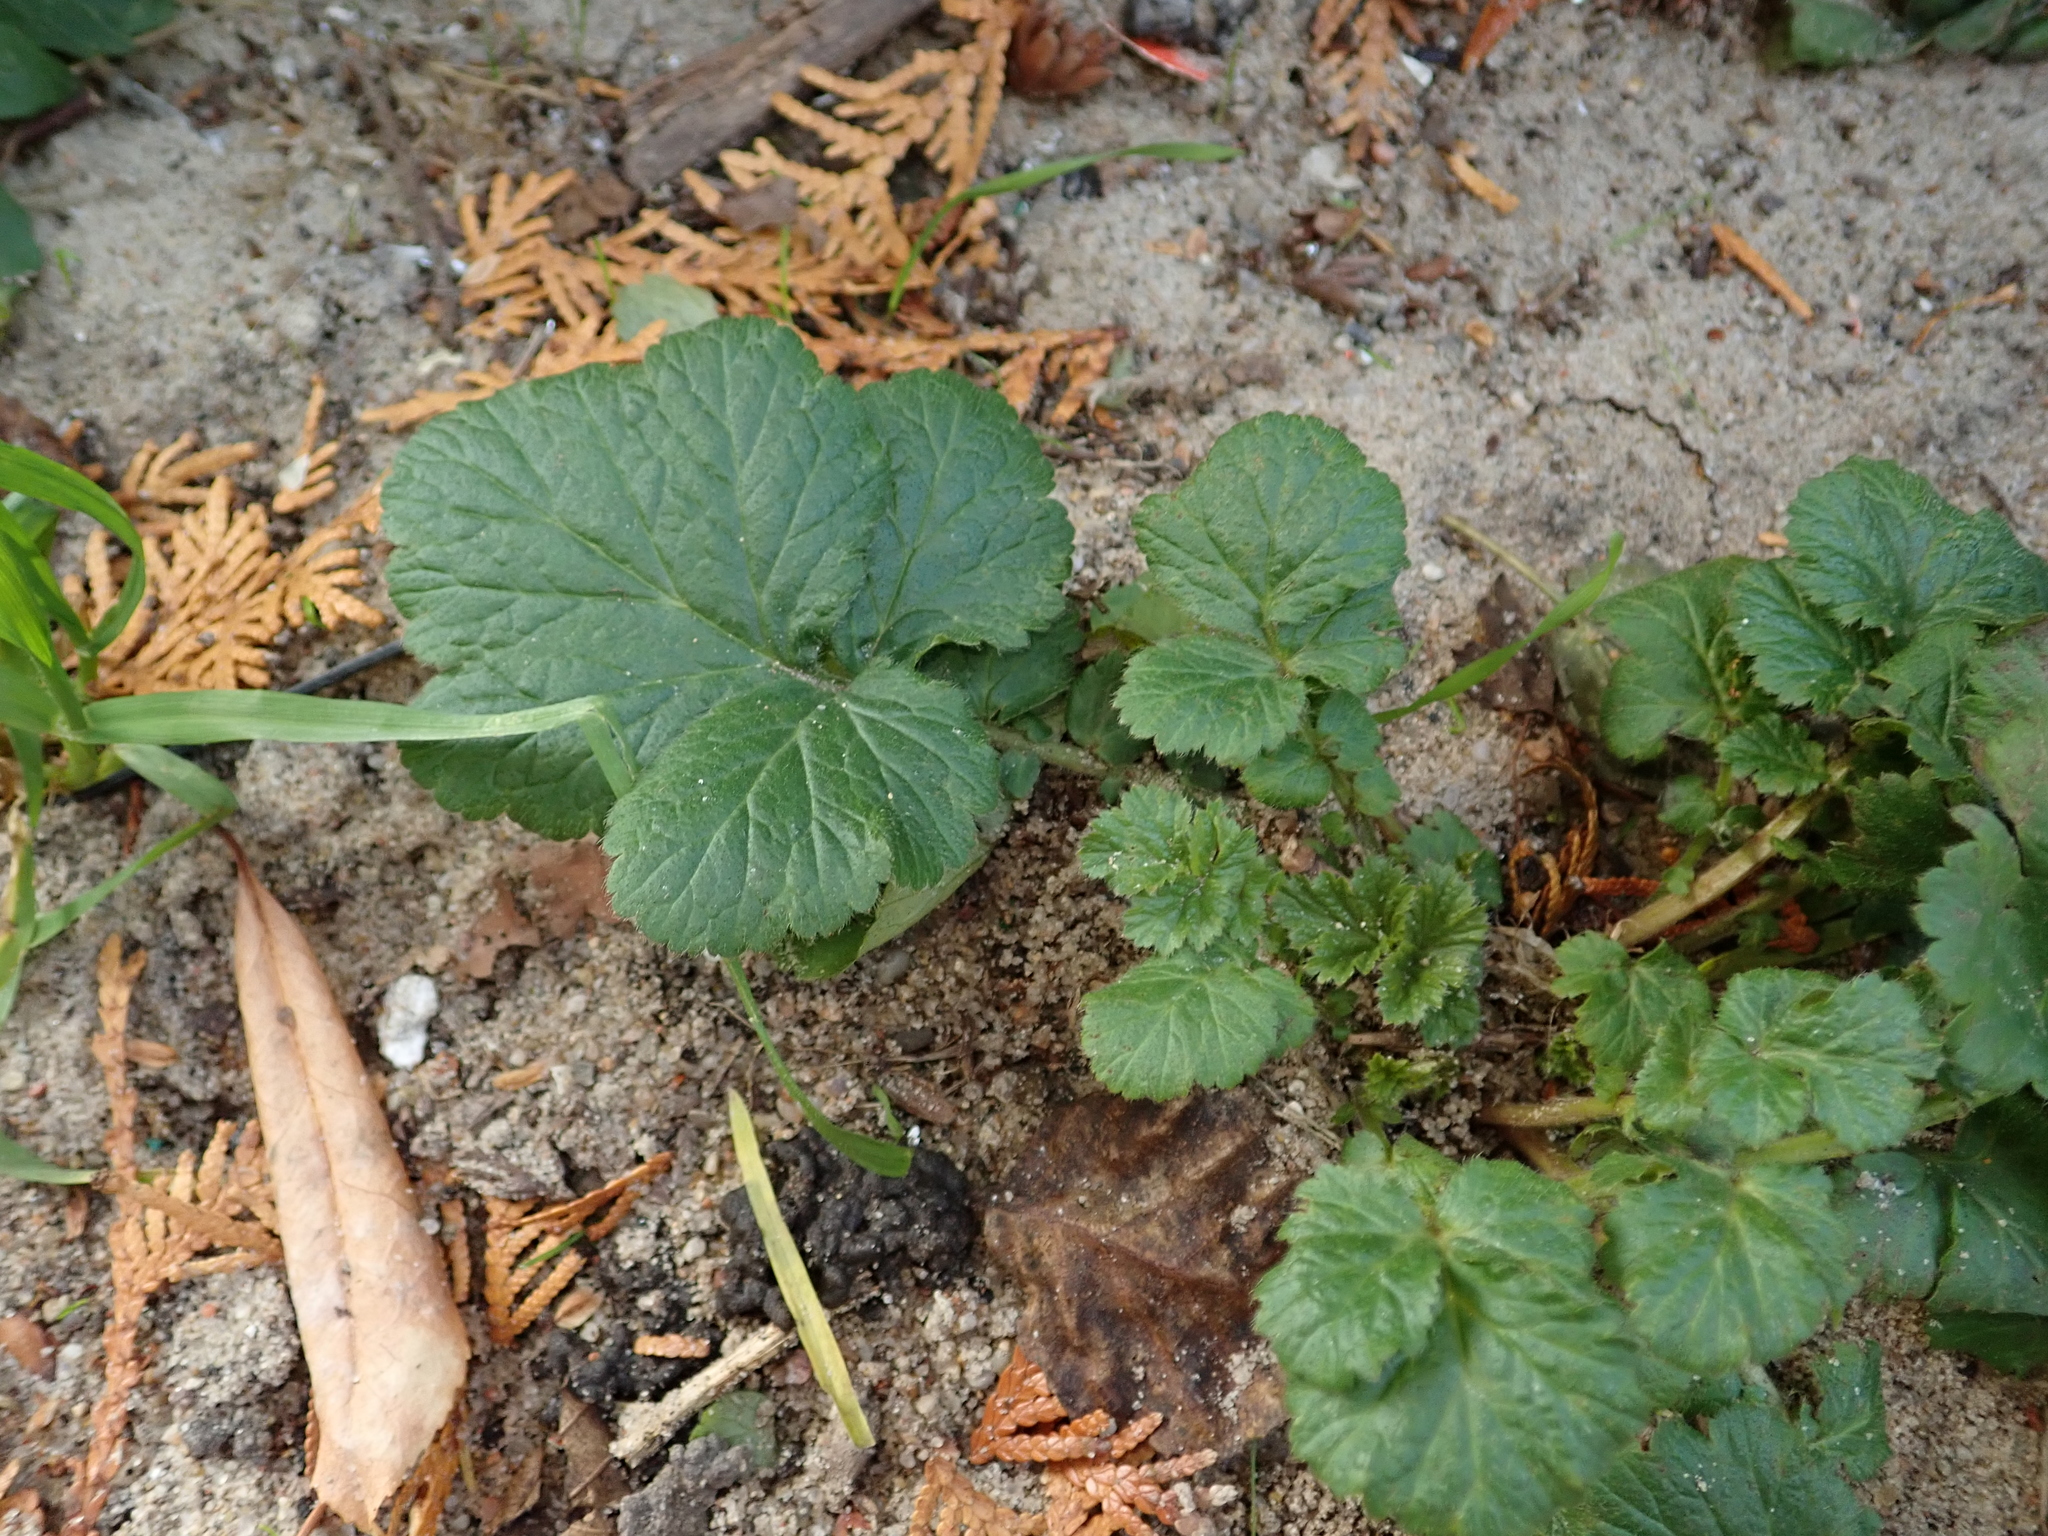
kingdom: Plantae
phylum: Tracheophyta
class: Magnoliopsida
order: Rosales
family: Rosaceae
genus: Geum
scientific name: Geum urbanum
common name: Wood avens
